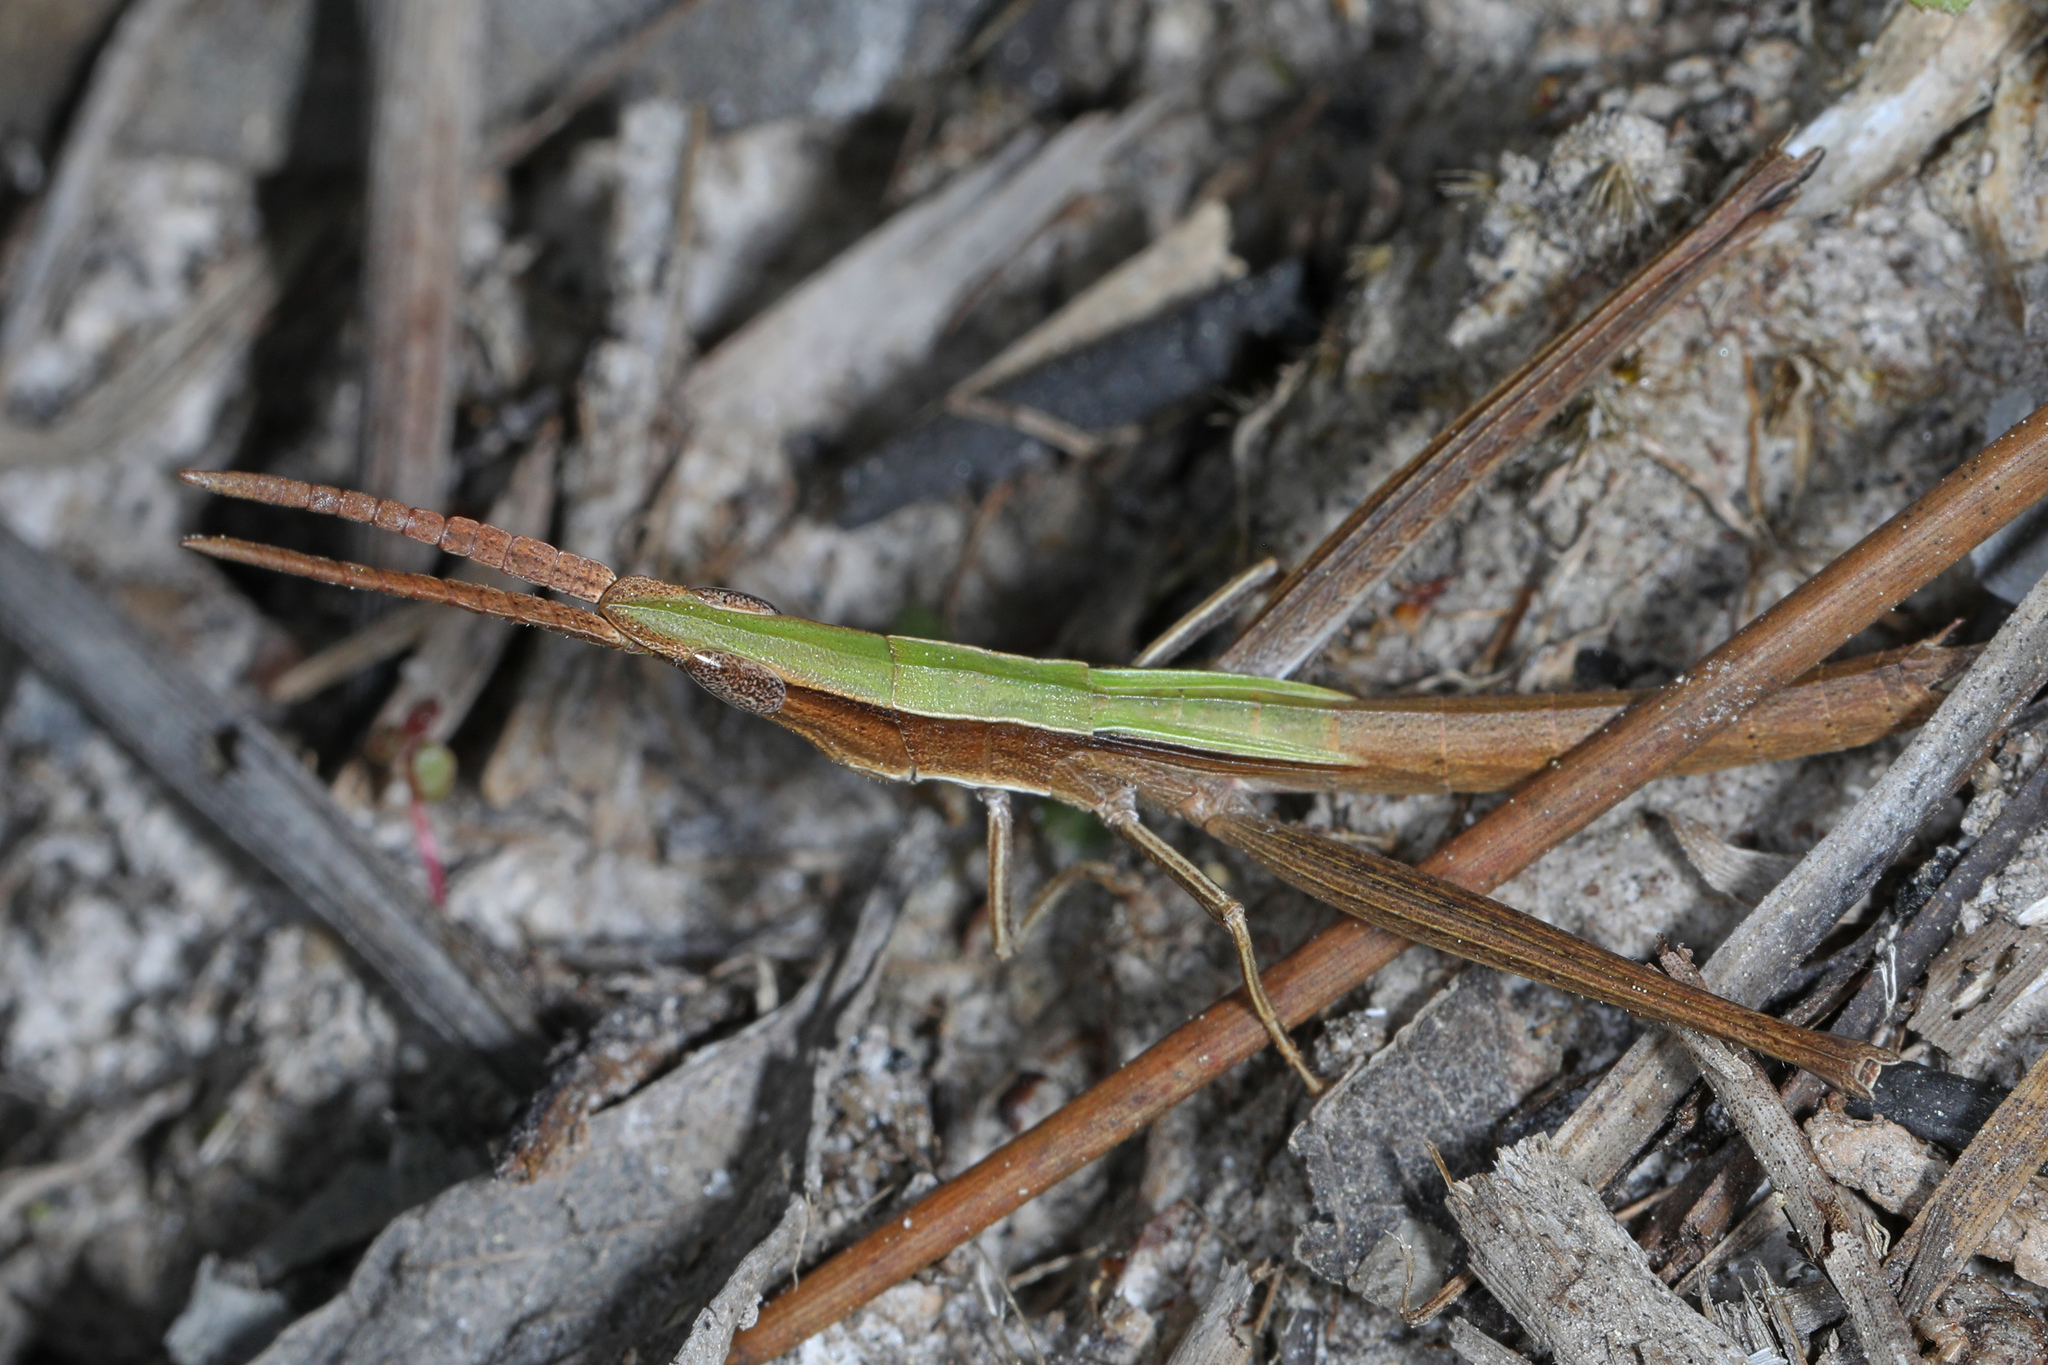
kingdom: Animalia
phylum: Arthropoda
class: Insecta
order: Orthoptera
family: Acrididae
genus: Achurum
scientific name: Achurum carinatum
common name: Long-headed toothpick grasshopper
